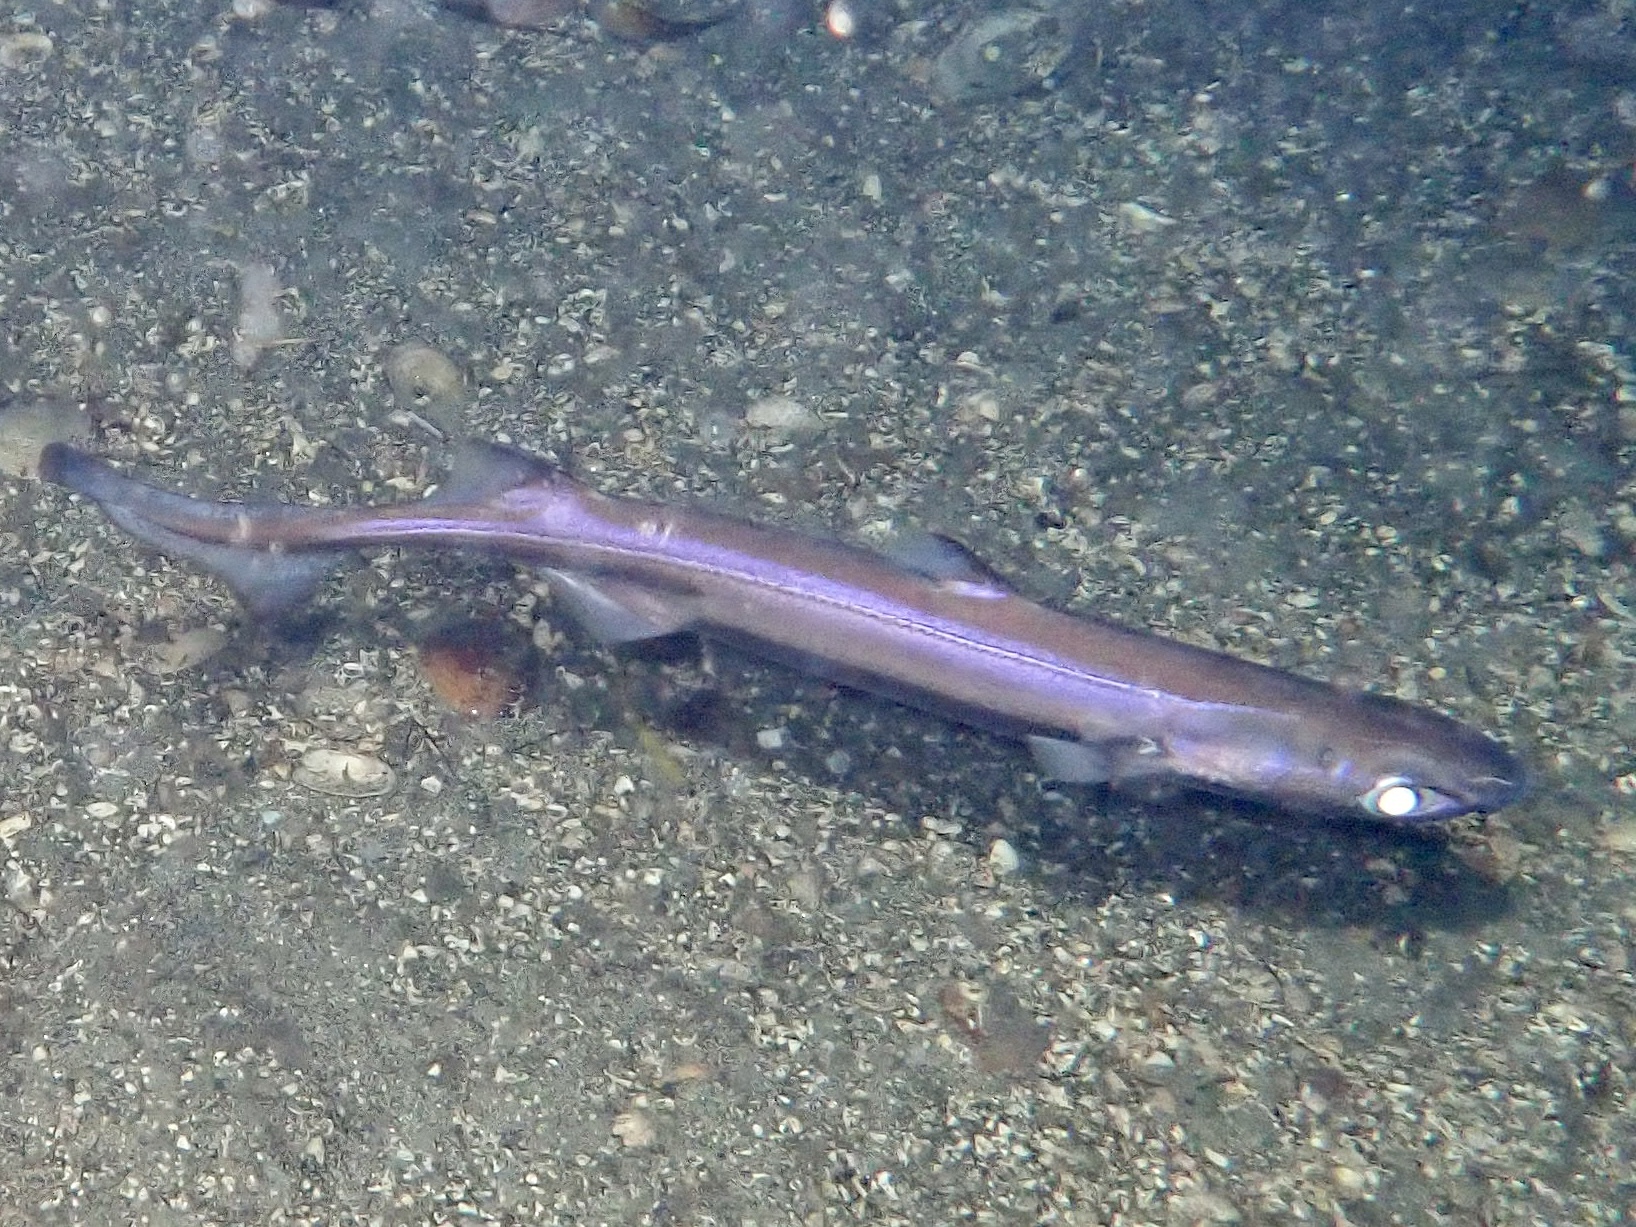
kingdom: Animalia
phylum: Chordata
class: Elasmobranchii
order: Squaliformes
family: Etmopteridae
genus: Etmopterus
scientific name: Etmopterus spinax
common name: Velvet belly
